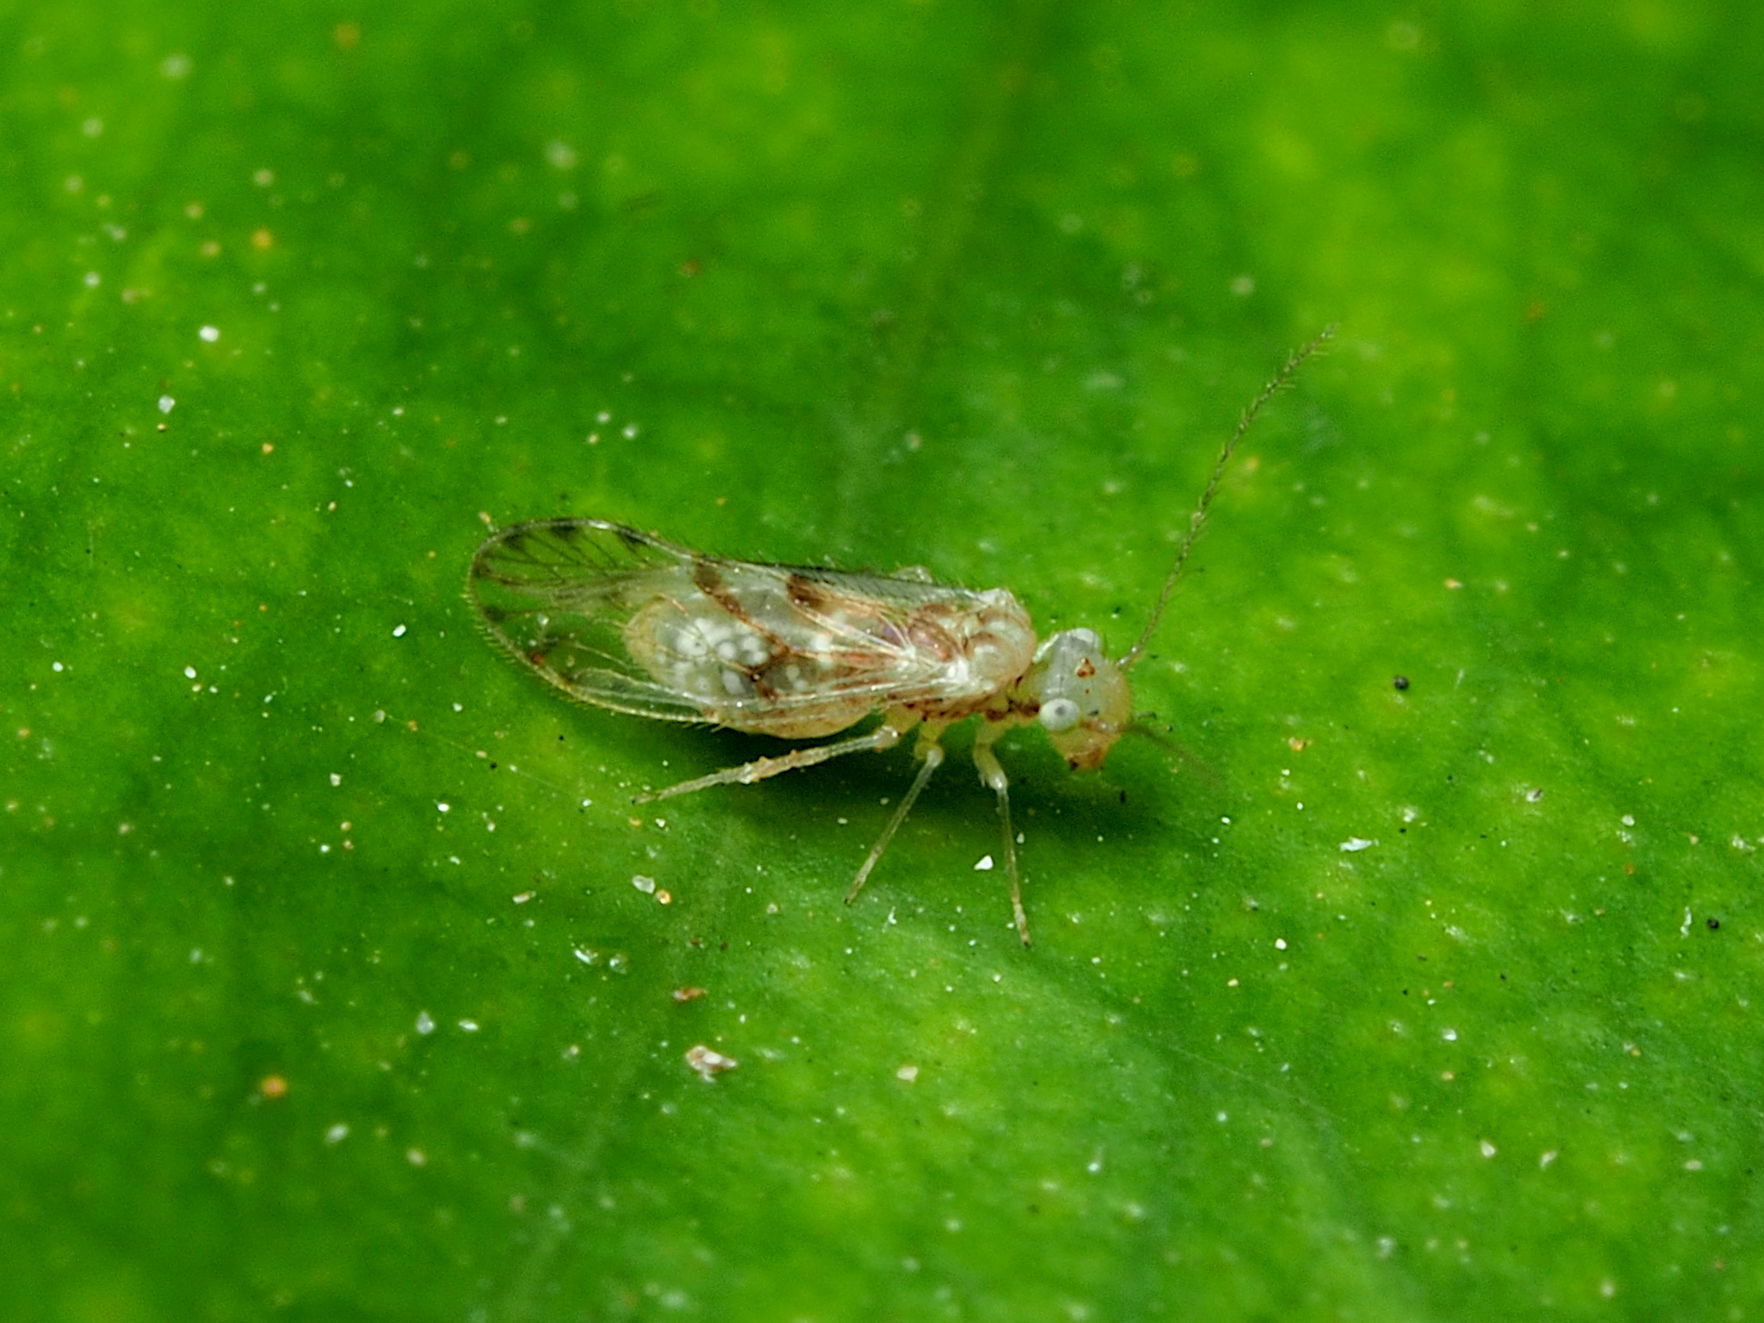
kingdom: Animalia
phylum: Arthropoda
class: Insecta
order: Psocodea
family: Trichopsocidae
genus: Trichopsocus
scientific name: Trichopsocus clarus
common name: Lash-faced psocid
